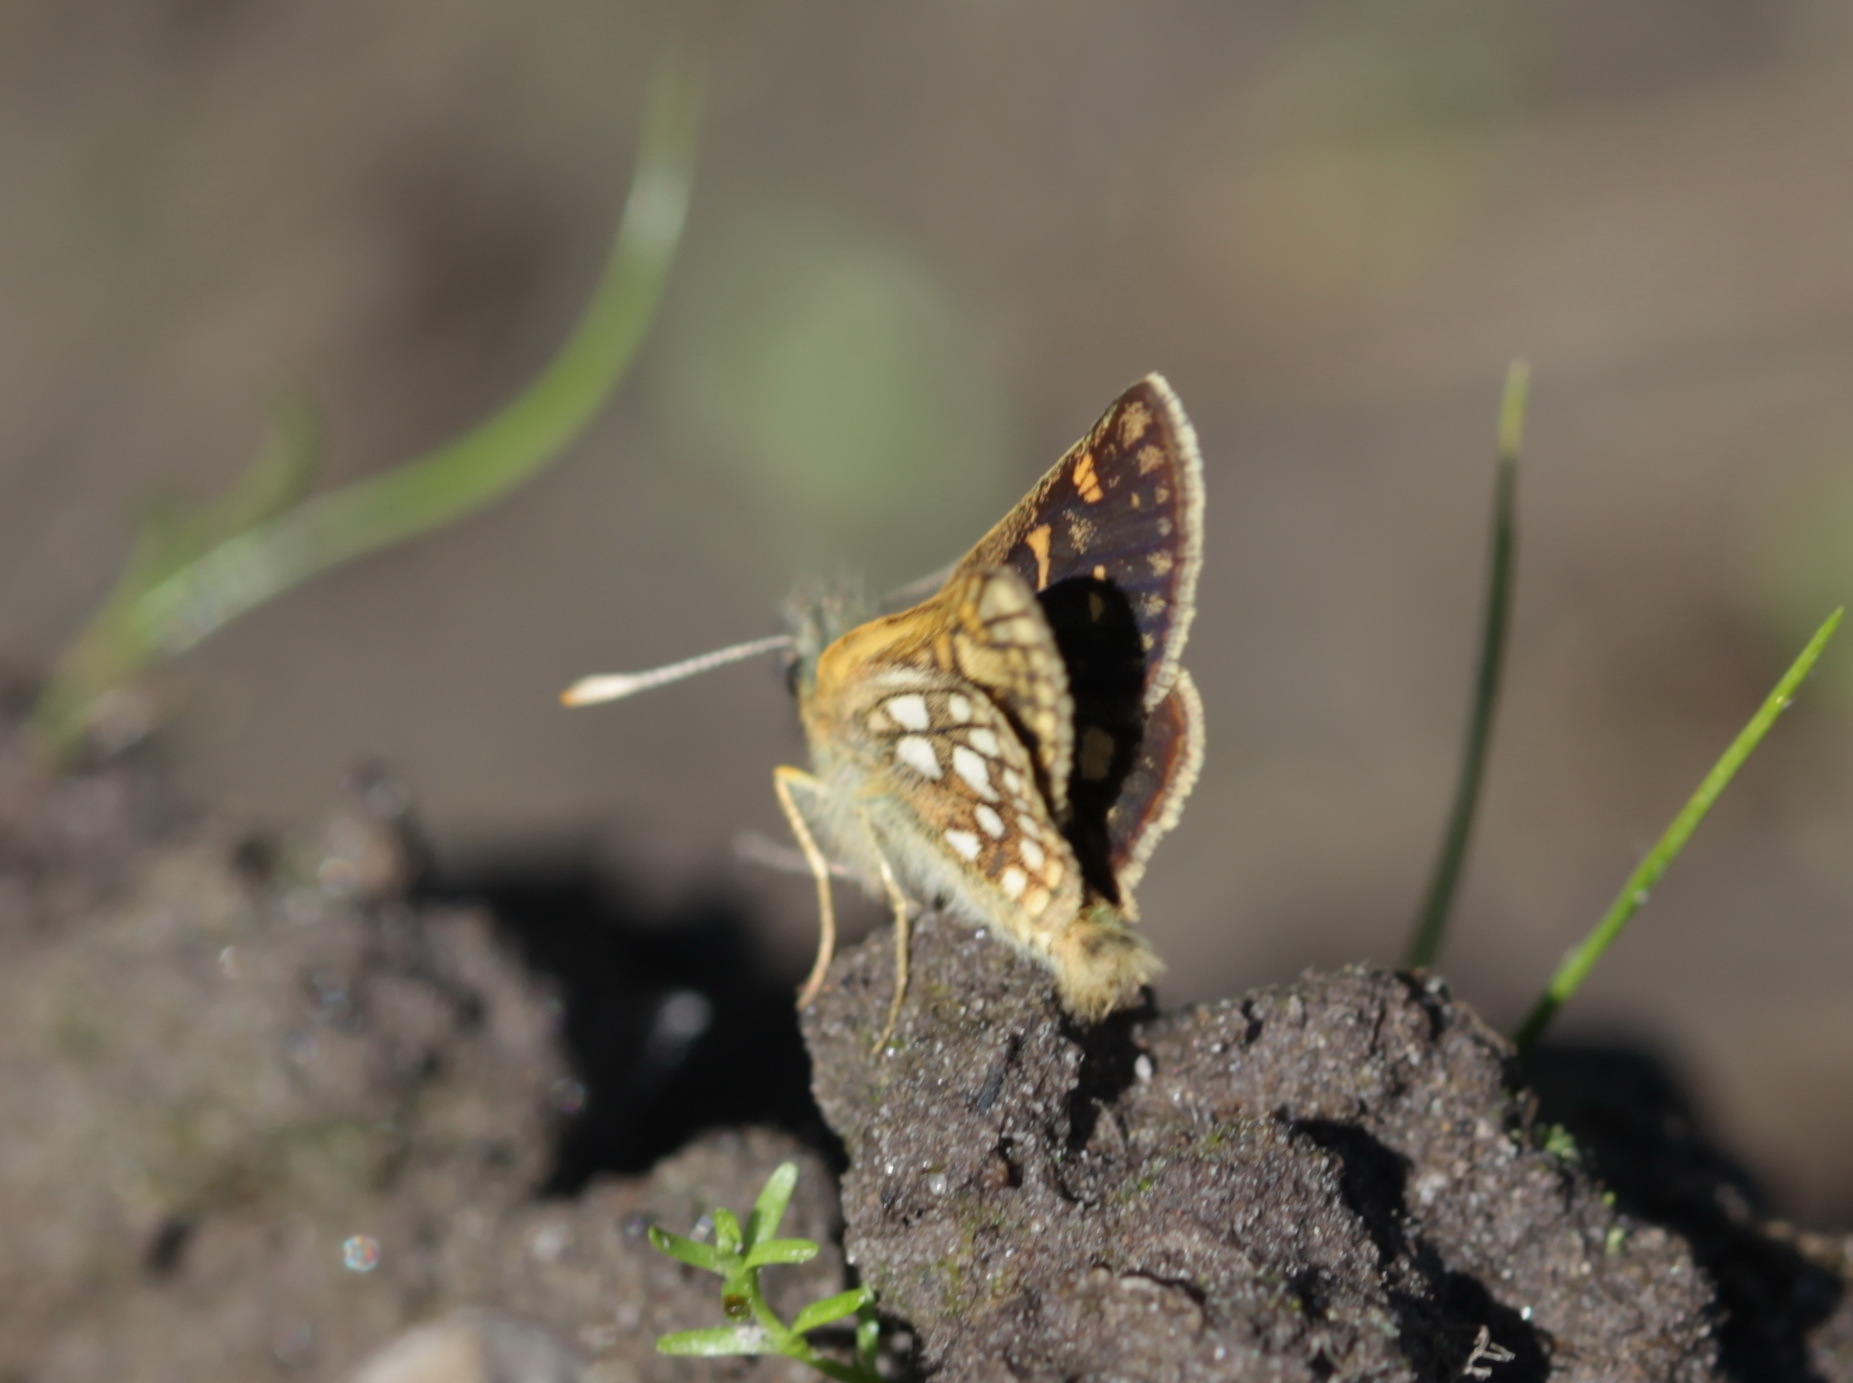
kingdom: Animalia
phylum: Arthropoda
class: Insecta
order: Lepidoptera
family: Hesperiidae
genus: Carterocephalus
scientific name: Carterocephalus palaemon
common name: Chequered skipper
